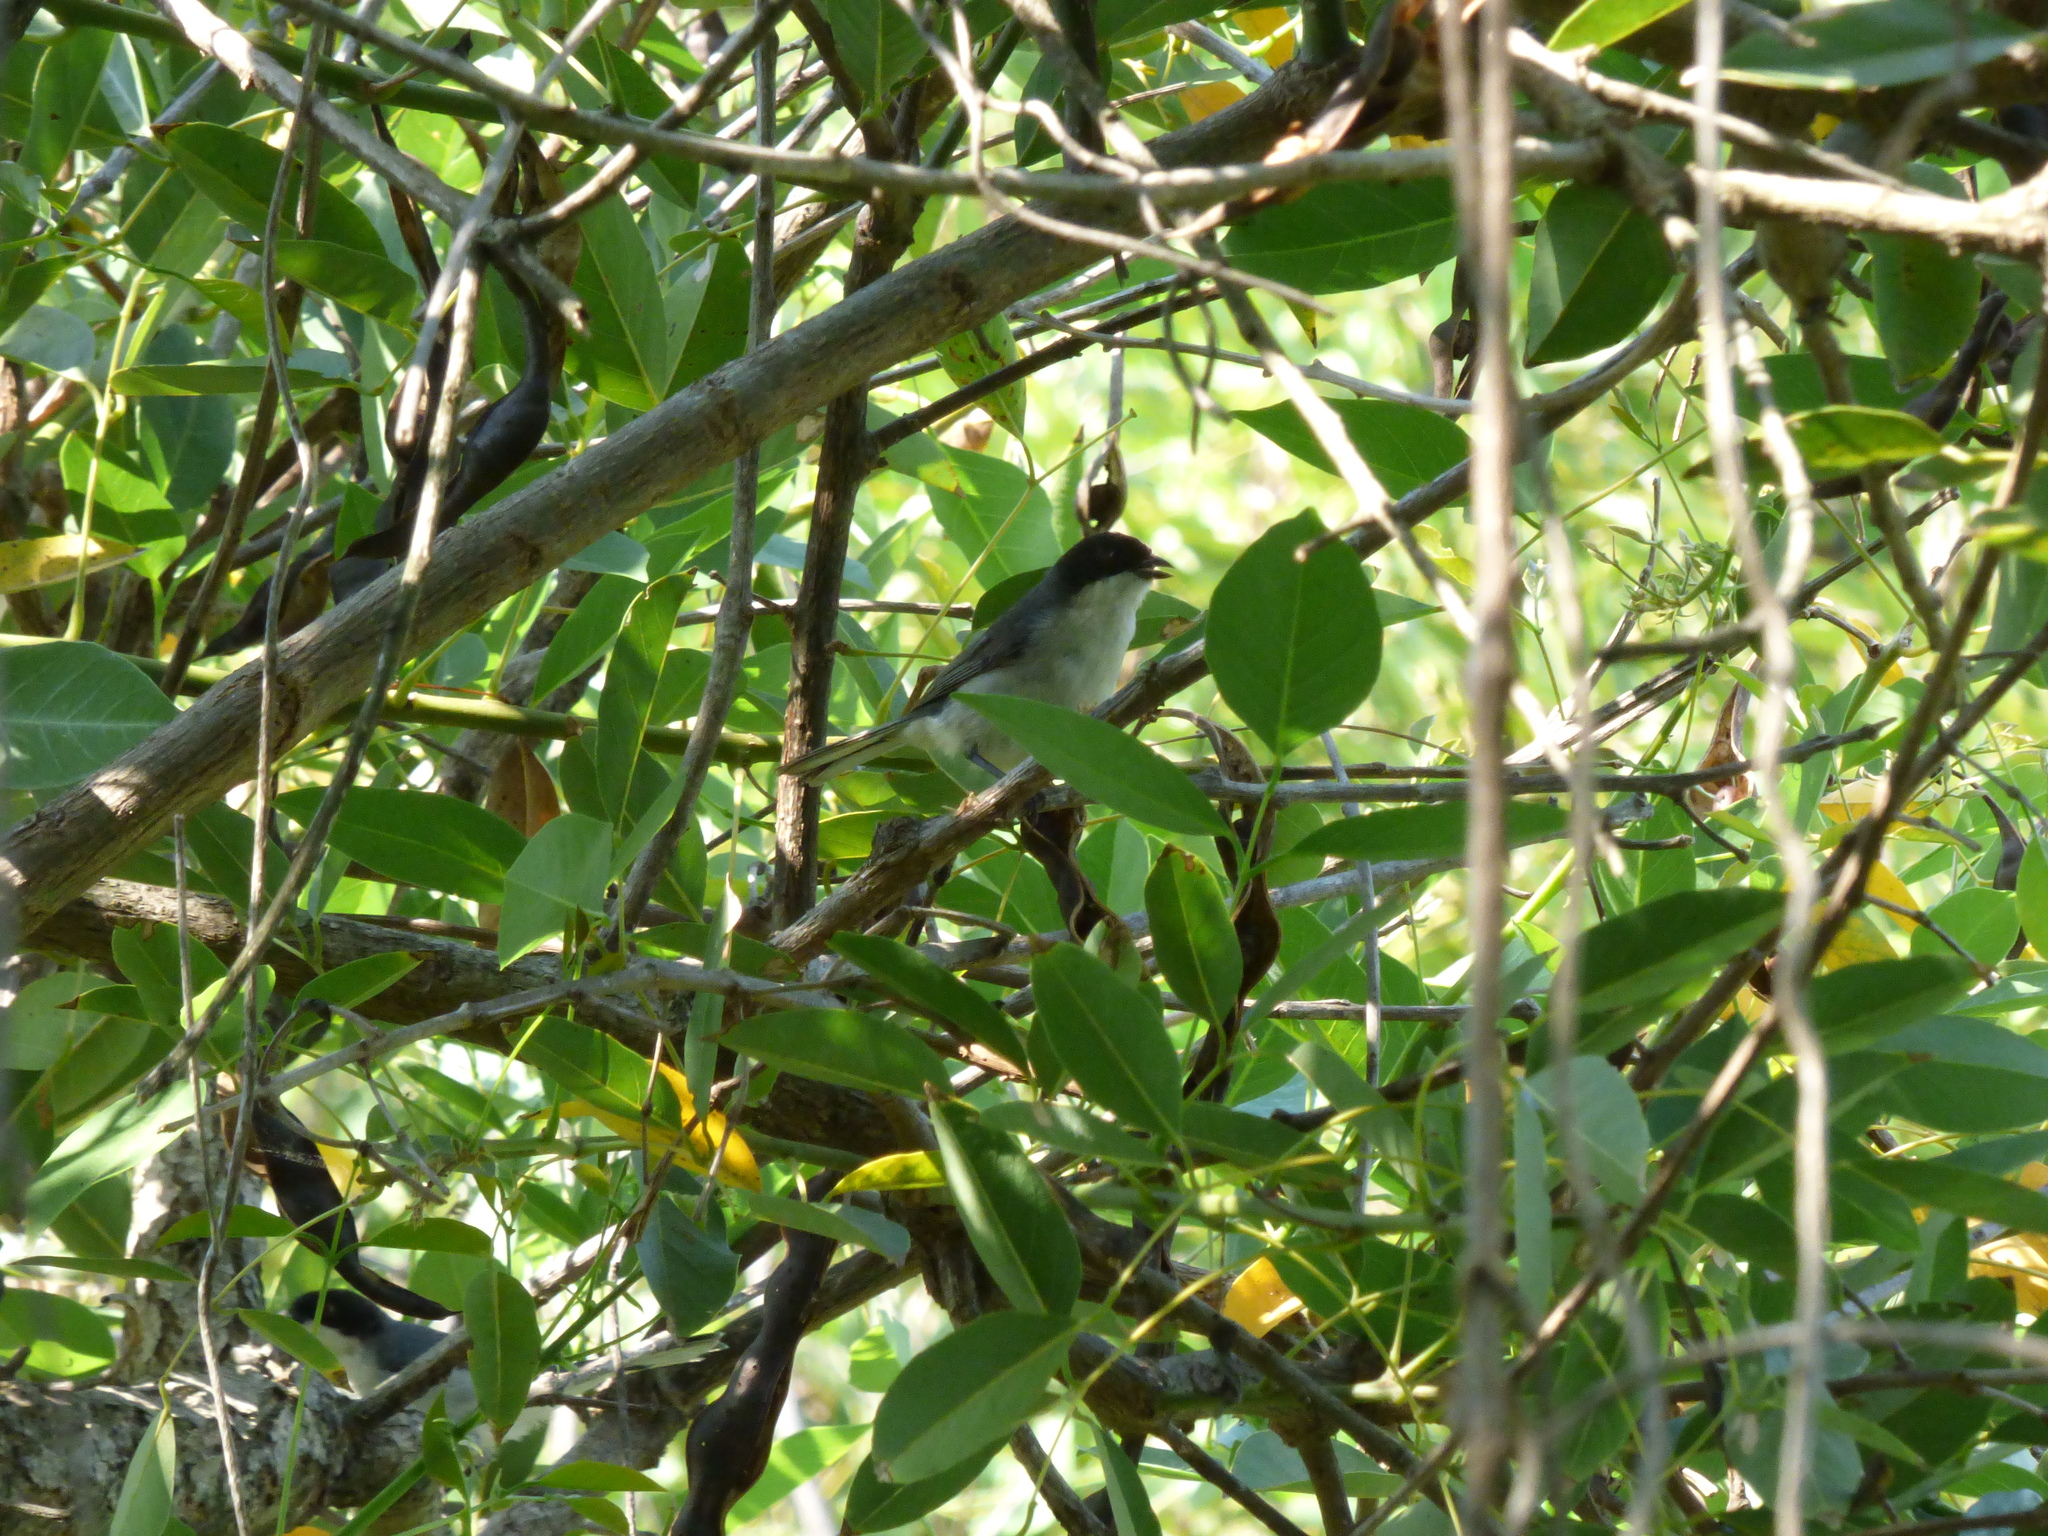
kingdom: Animalia
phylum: Chordata
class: Aves
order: Passeriformes
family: Thraupidae
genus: Microspingus
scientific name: Microspingus melanoleucus
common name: Black-capped warbling-finch
